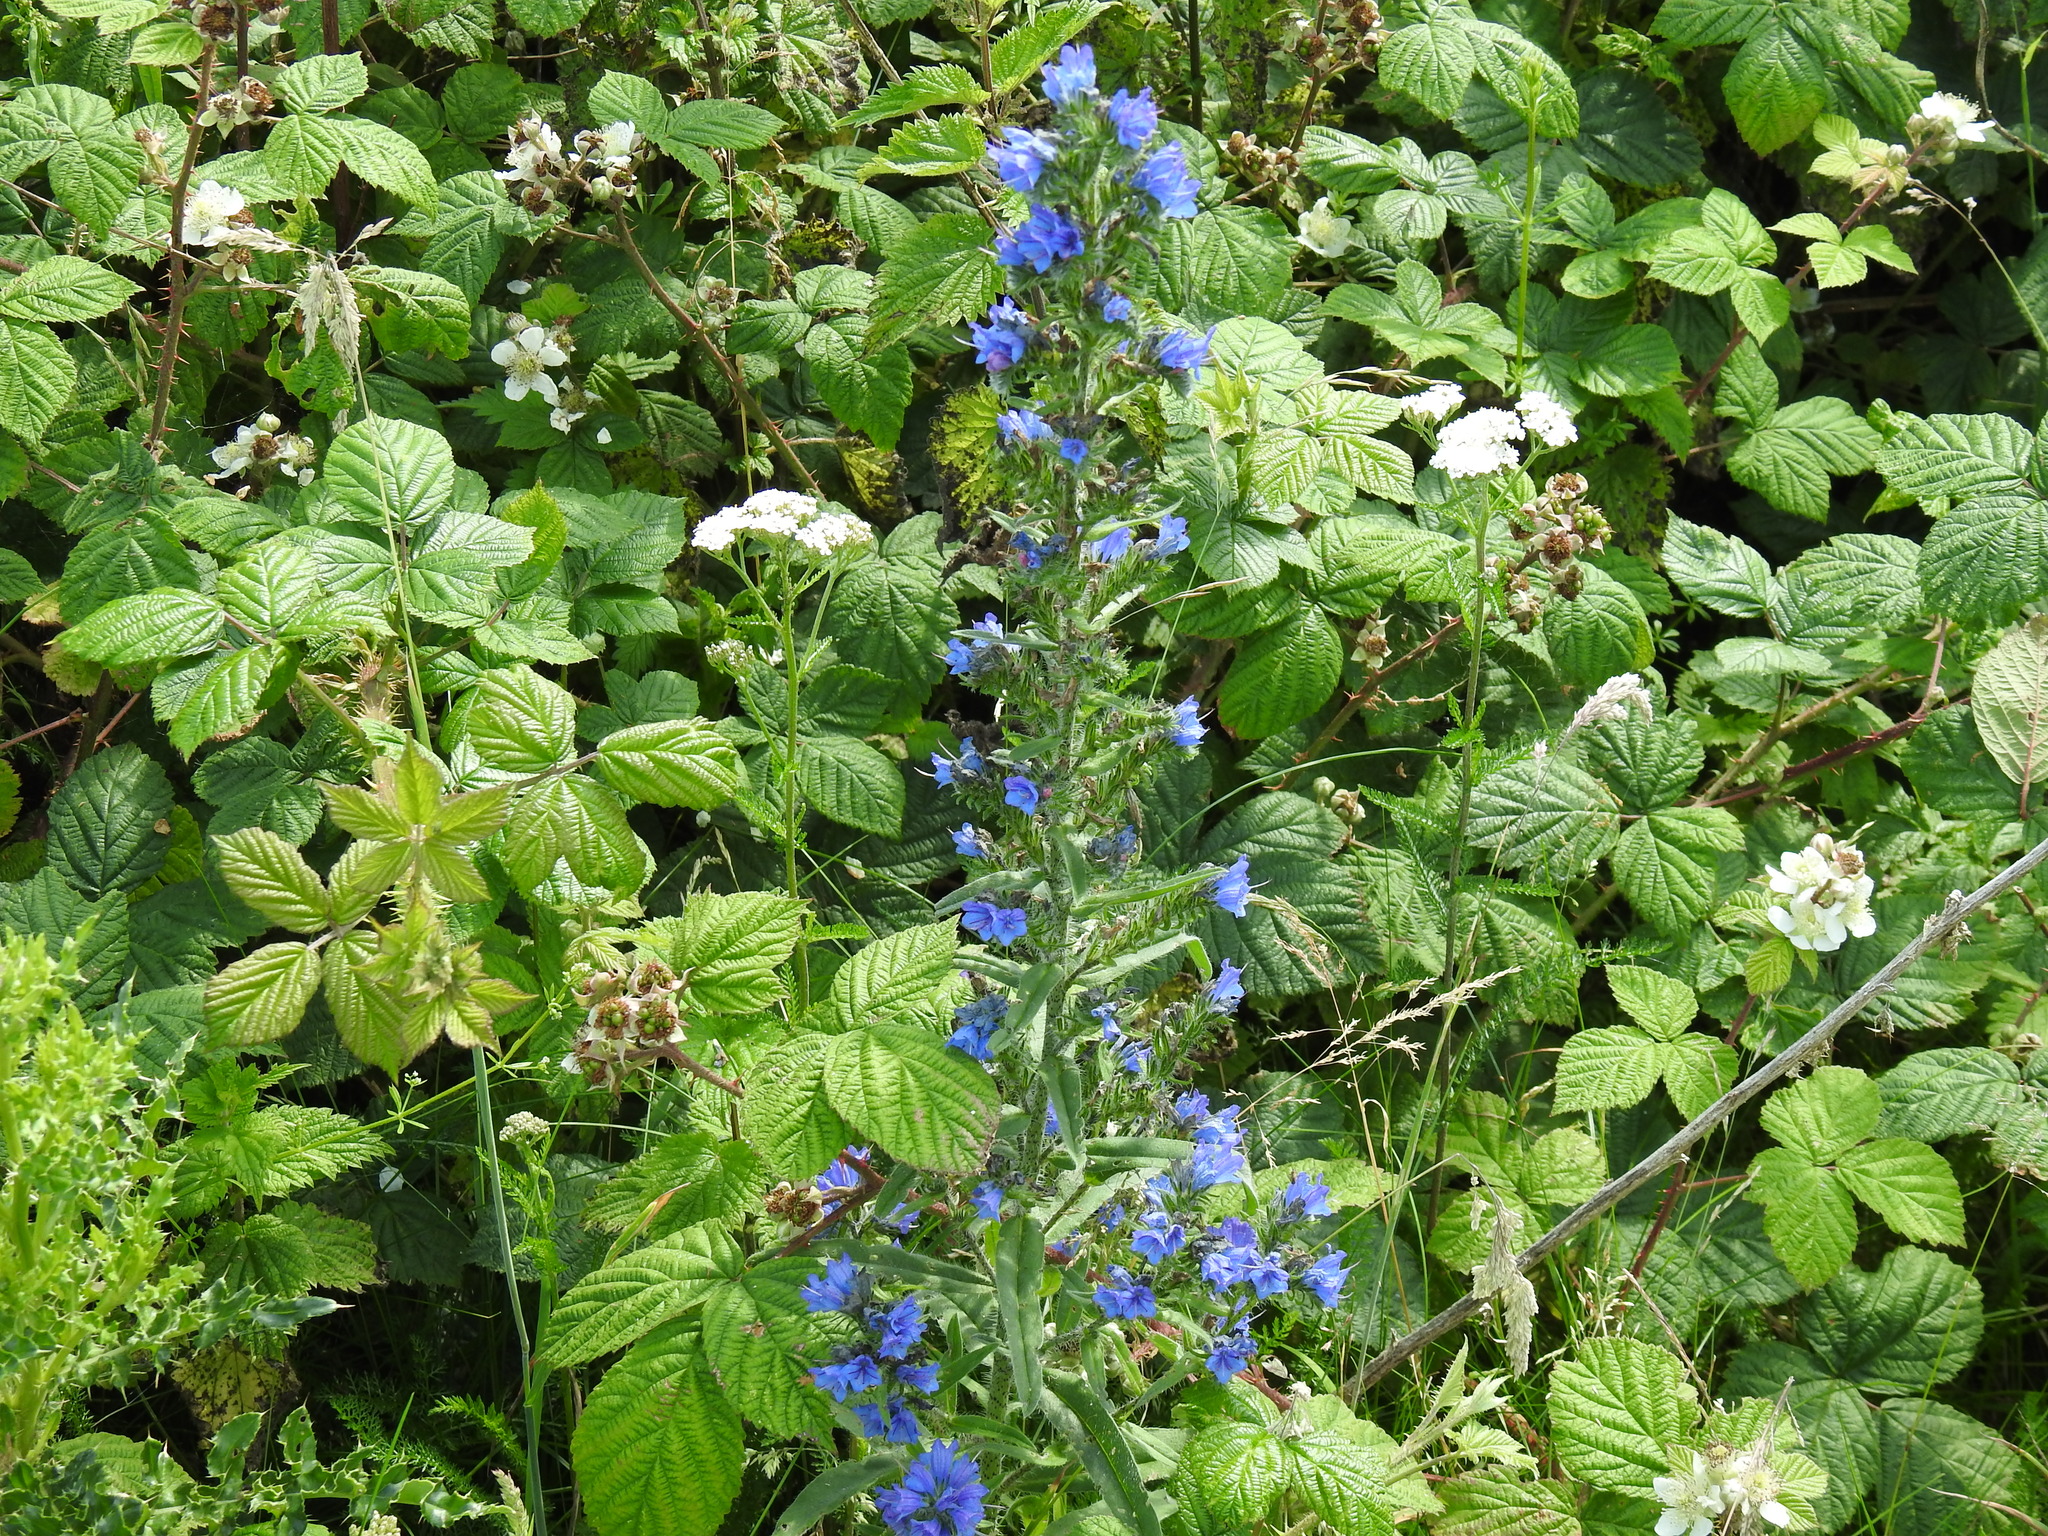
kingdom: Plantae
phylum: Tracheophyta
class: Magnoliopsida
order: Boraginales
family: Boraginaceae
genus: Echium
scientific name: Echium vulgare
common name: Common viper's bugloss
